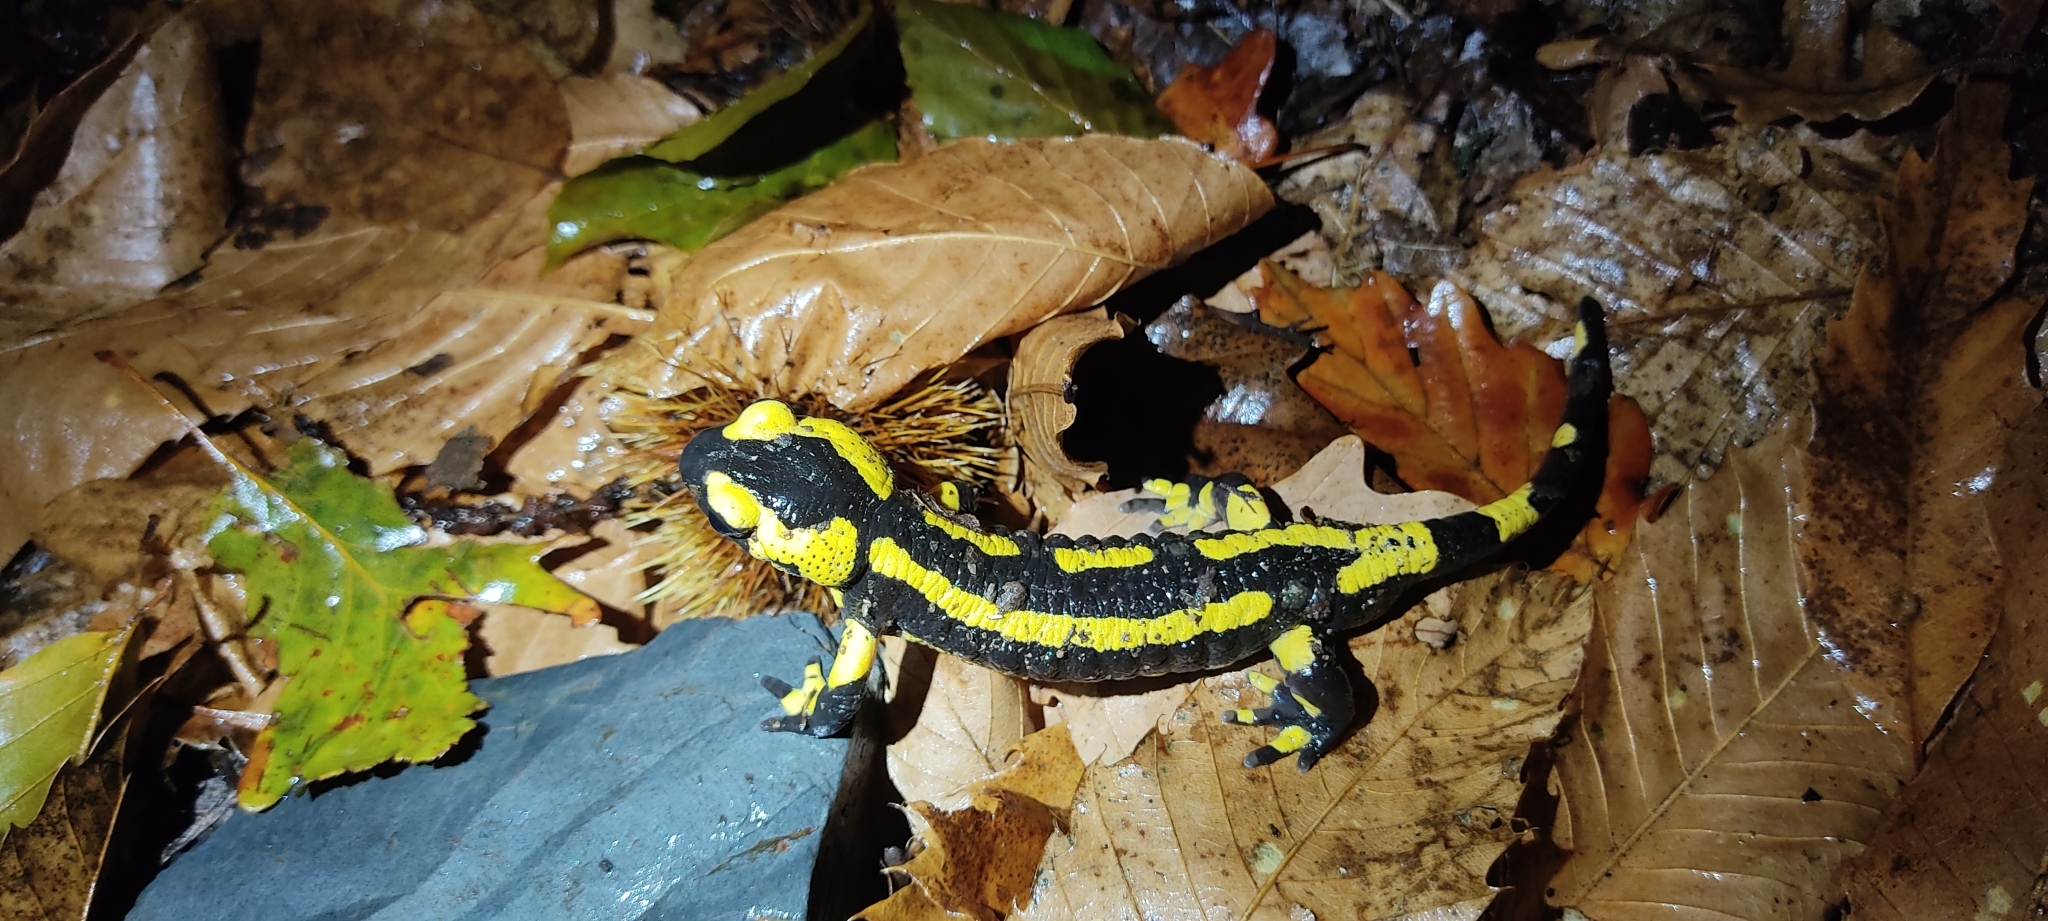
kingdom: Animalia
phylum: Chordata
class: Amphibia
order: Caudata
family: Salamandridae
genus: Salamandra
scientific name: Salamandra salamandra
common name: Fire salamander
